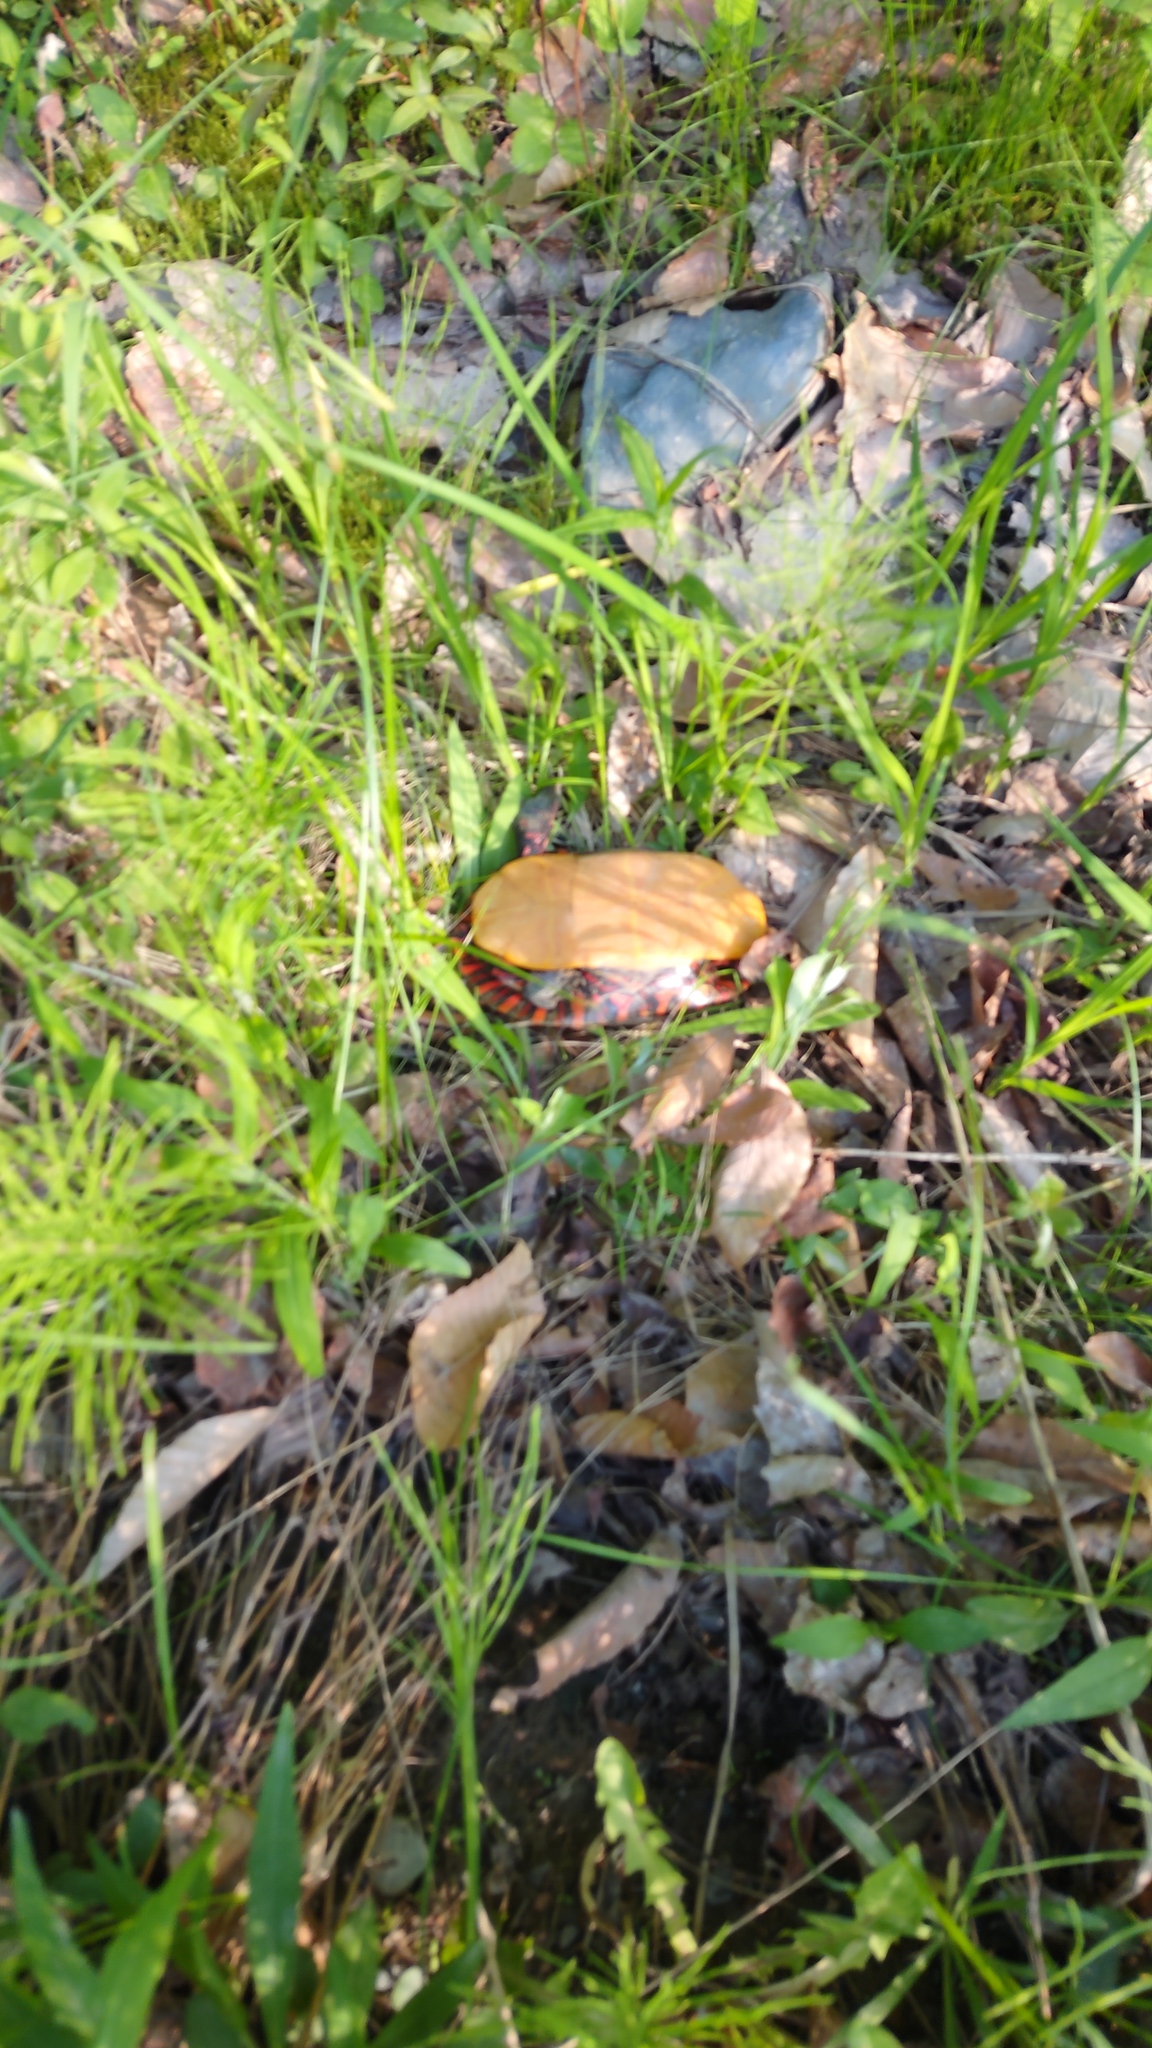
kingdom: Animalia
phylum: Chordata
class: Testudines
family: Emydidae
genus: Chrysemys
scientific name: Chrysemys picta
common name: Painted turtle
